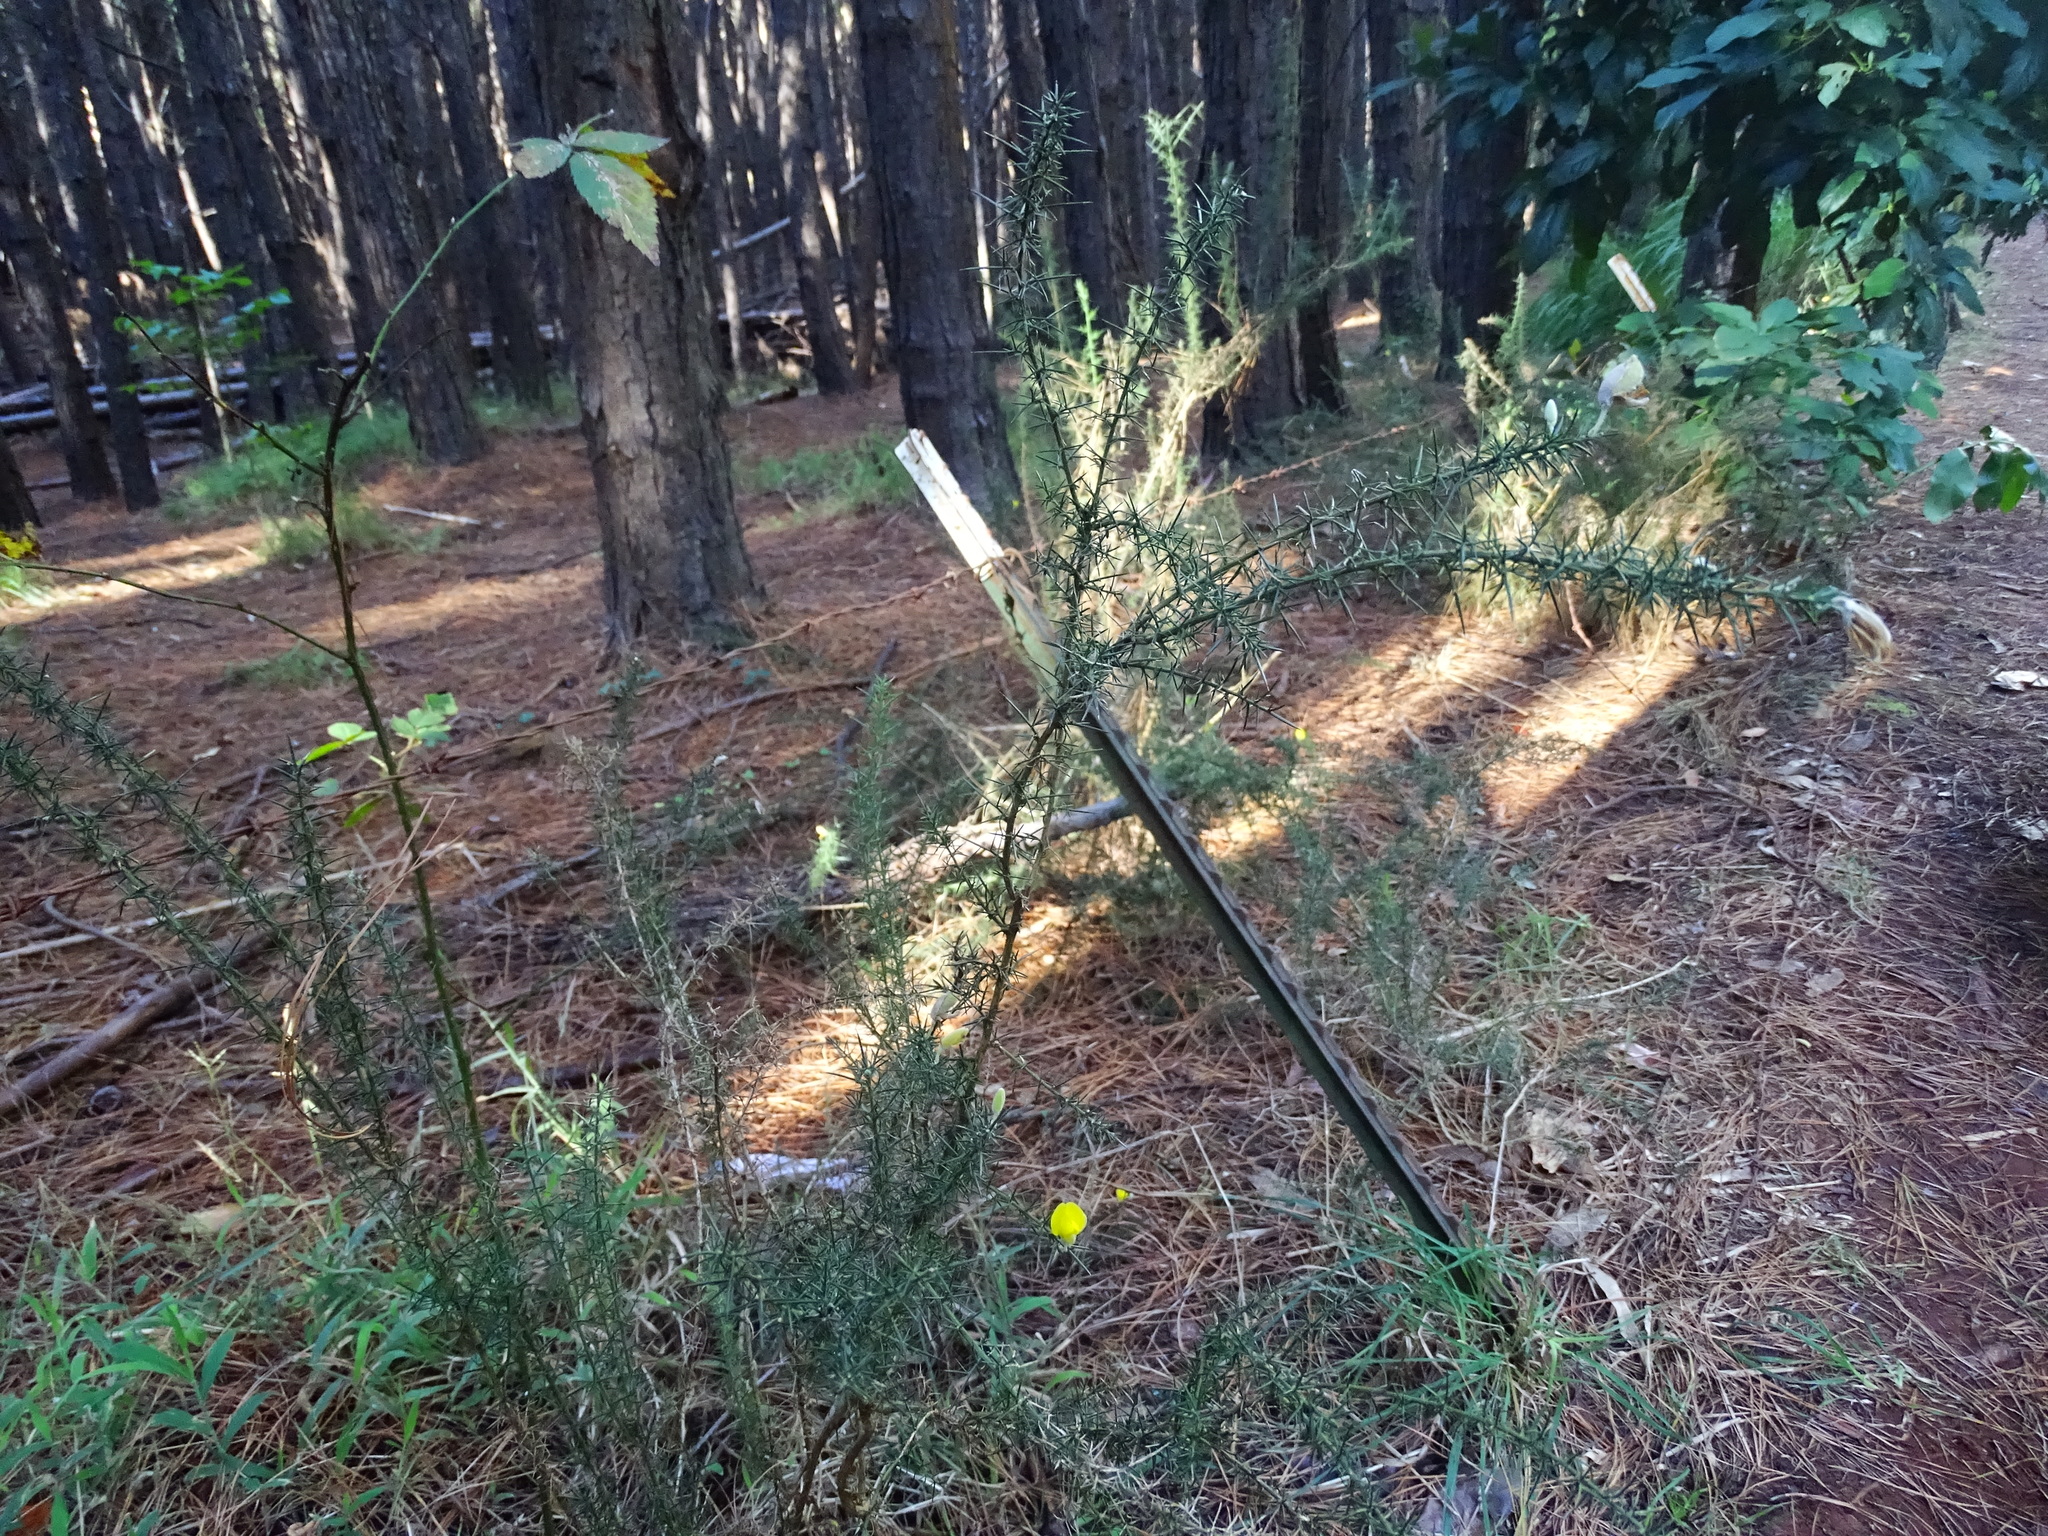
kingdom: Plantae
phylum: Tracheophyta
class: Magnoliopsida
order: Fabales
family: Fabaceae
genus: Ulex
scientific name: Ulex europaeus
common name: Common gorse
